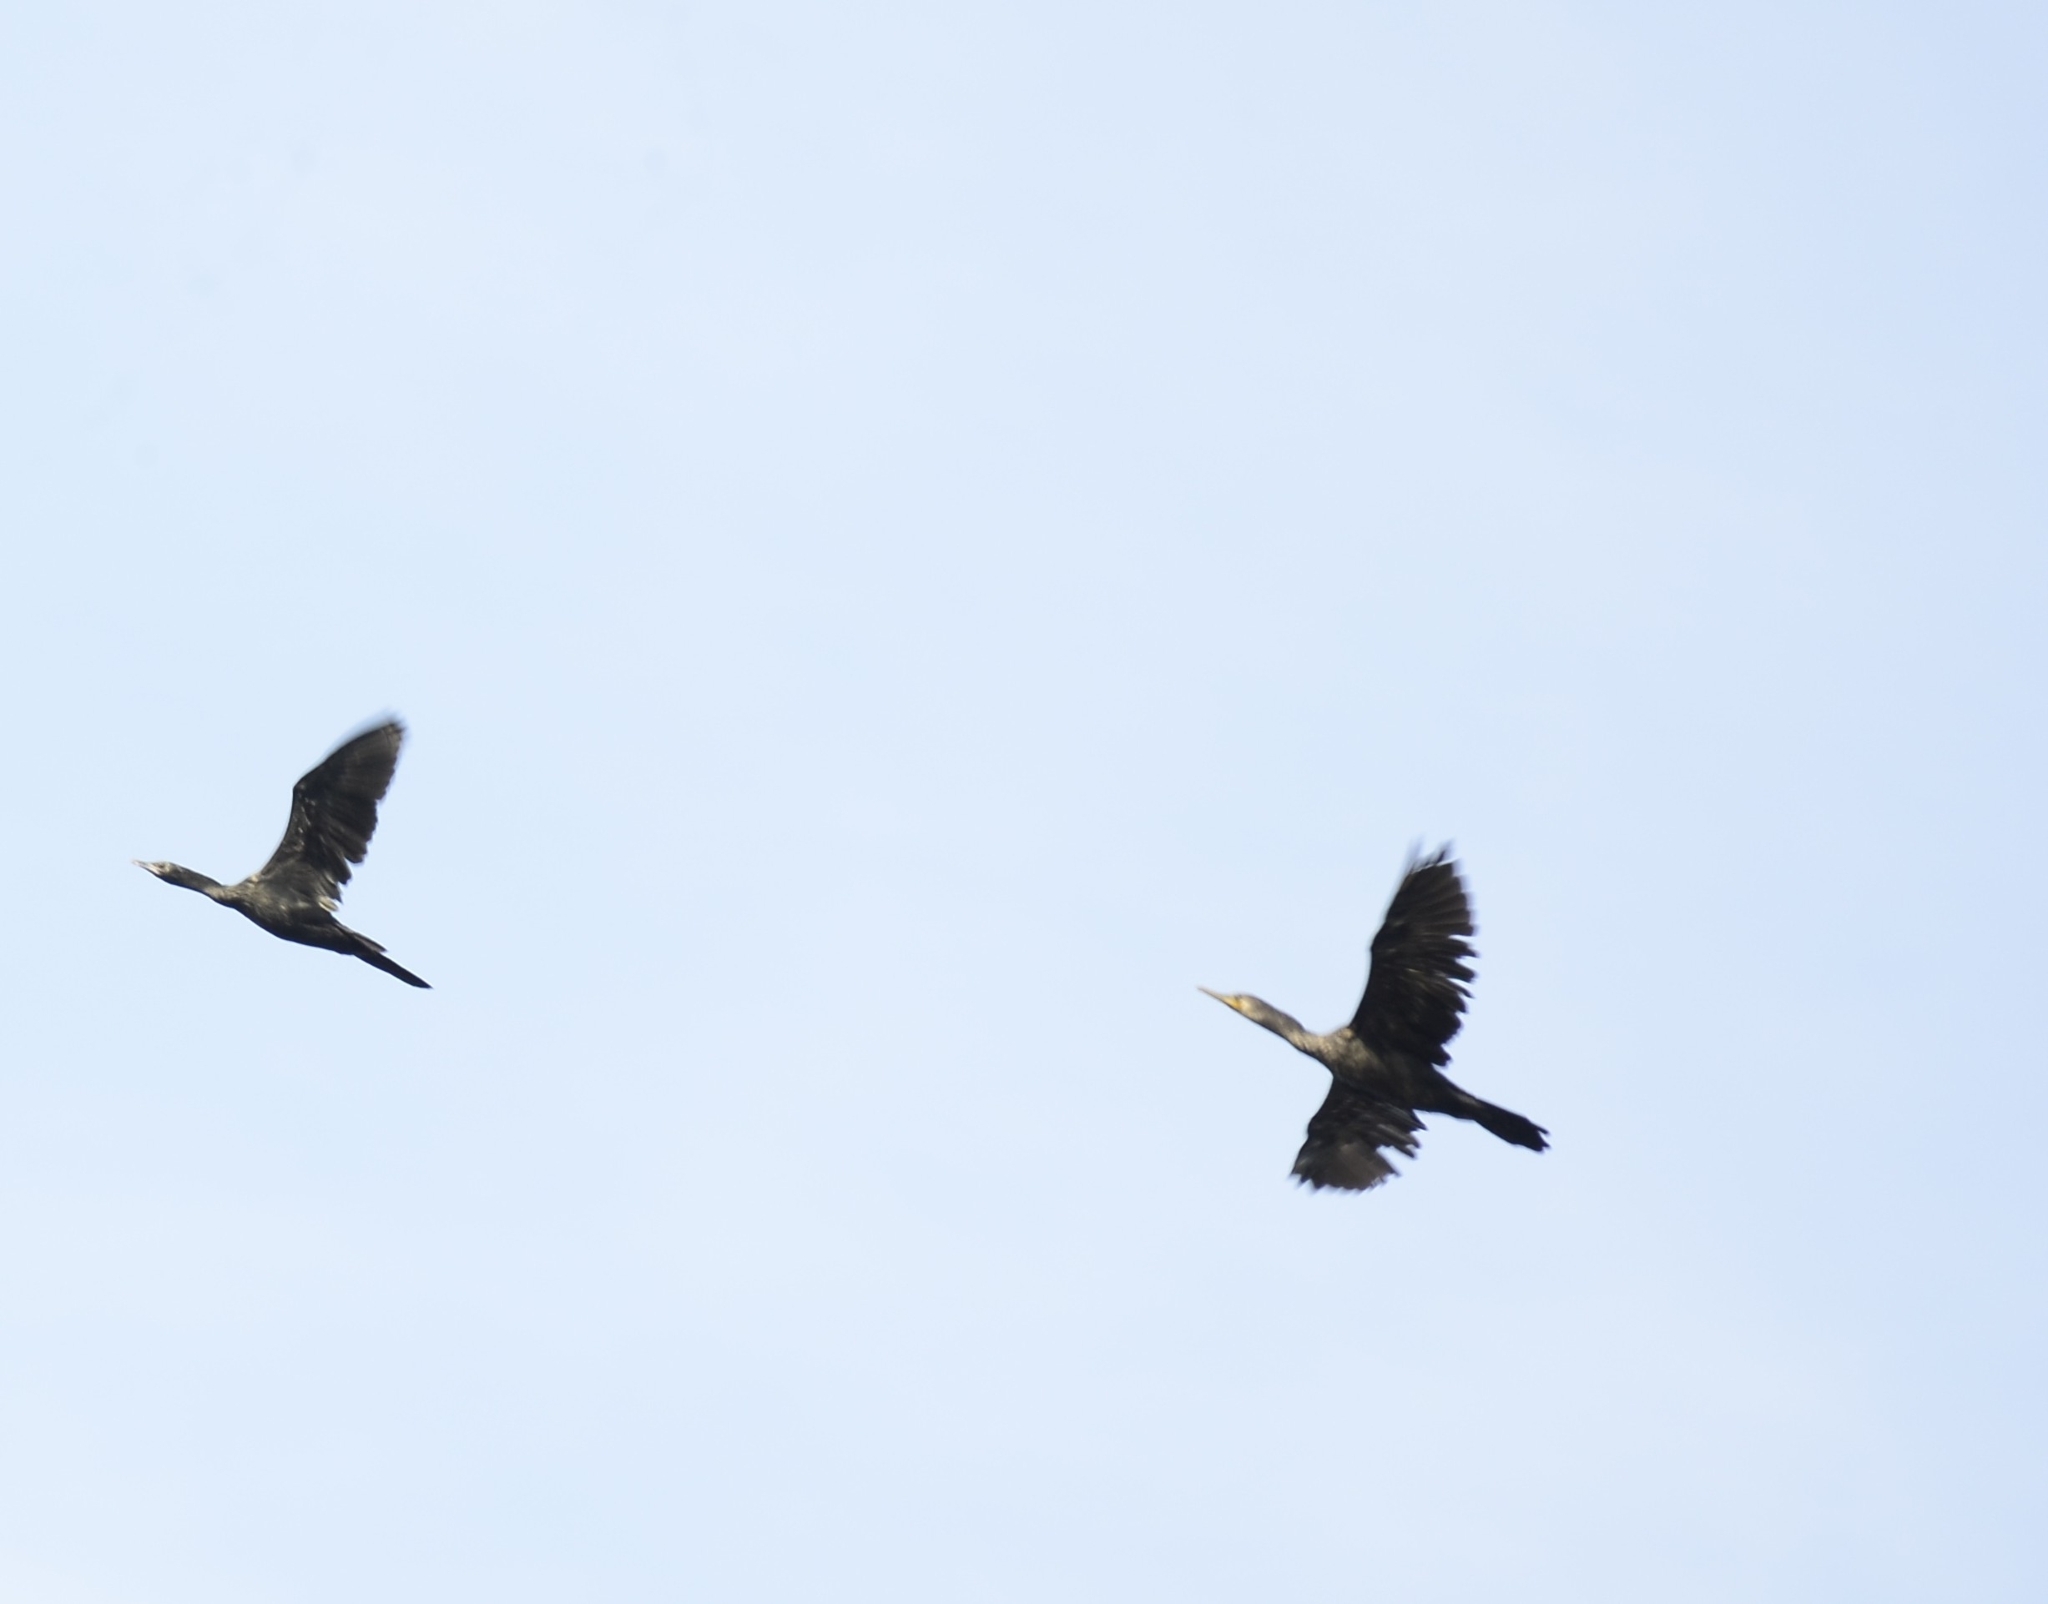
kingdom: Animalia
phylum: Chordata
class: Aves
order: Suliformes
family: Phalacrocoracidae
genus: Phalacrocorax
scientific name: Phalacrocorax fuscicollis
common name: Indian cormorant
